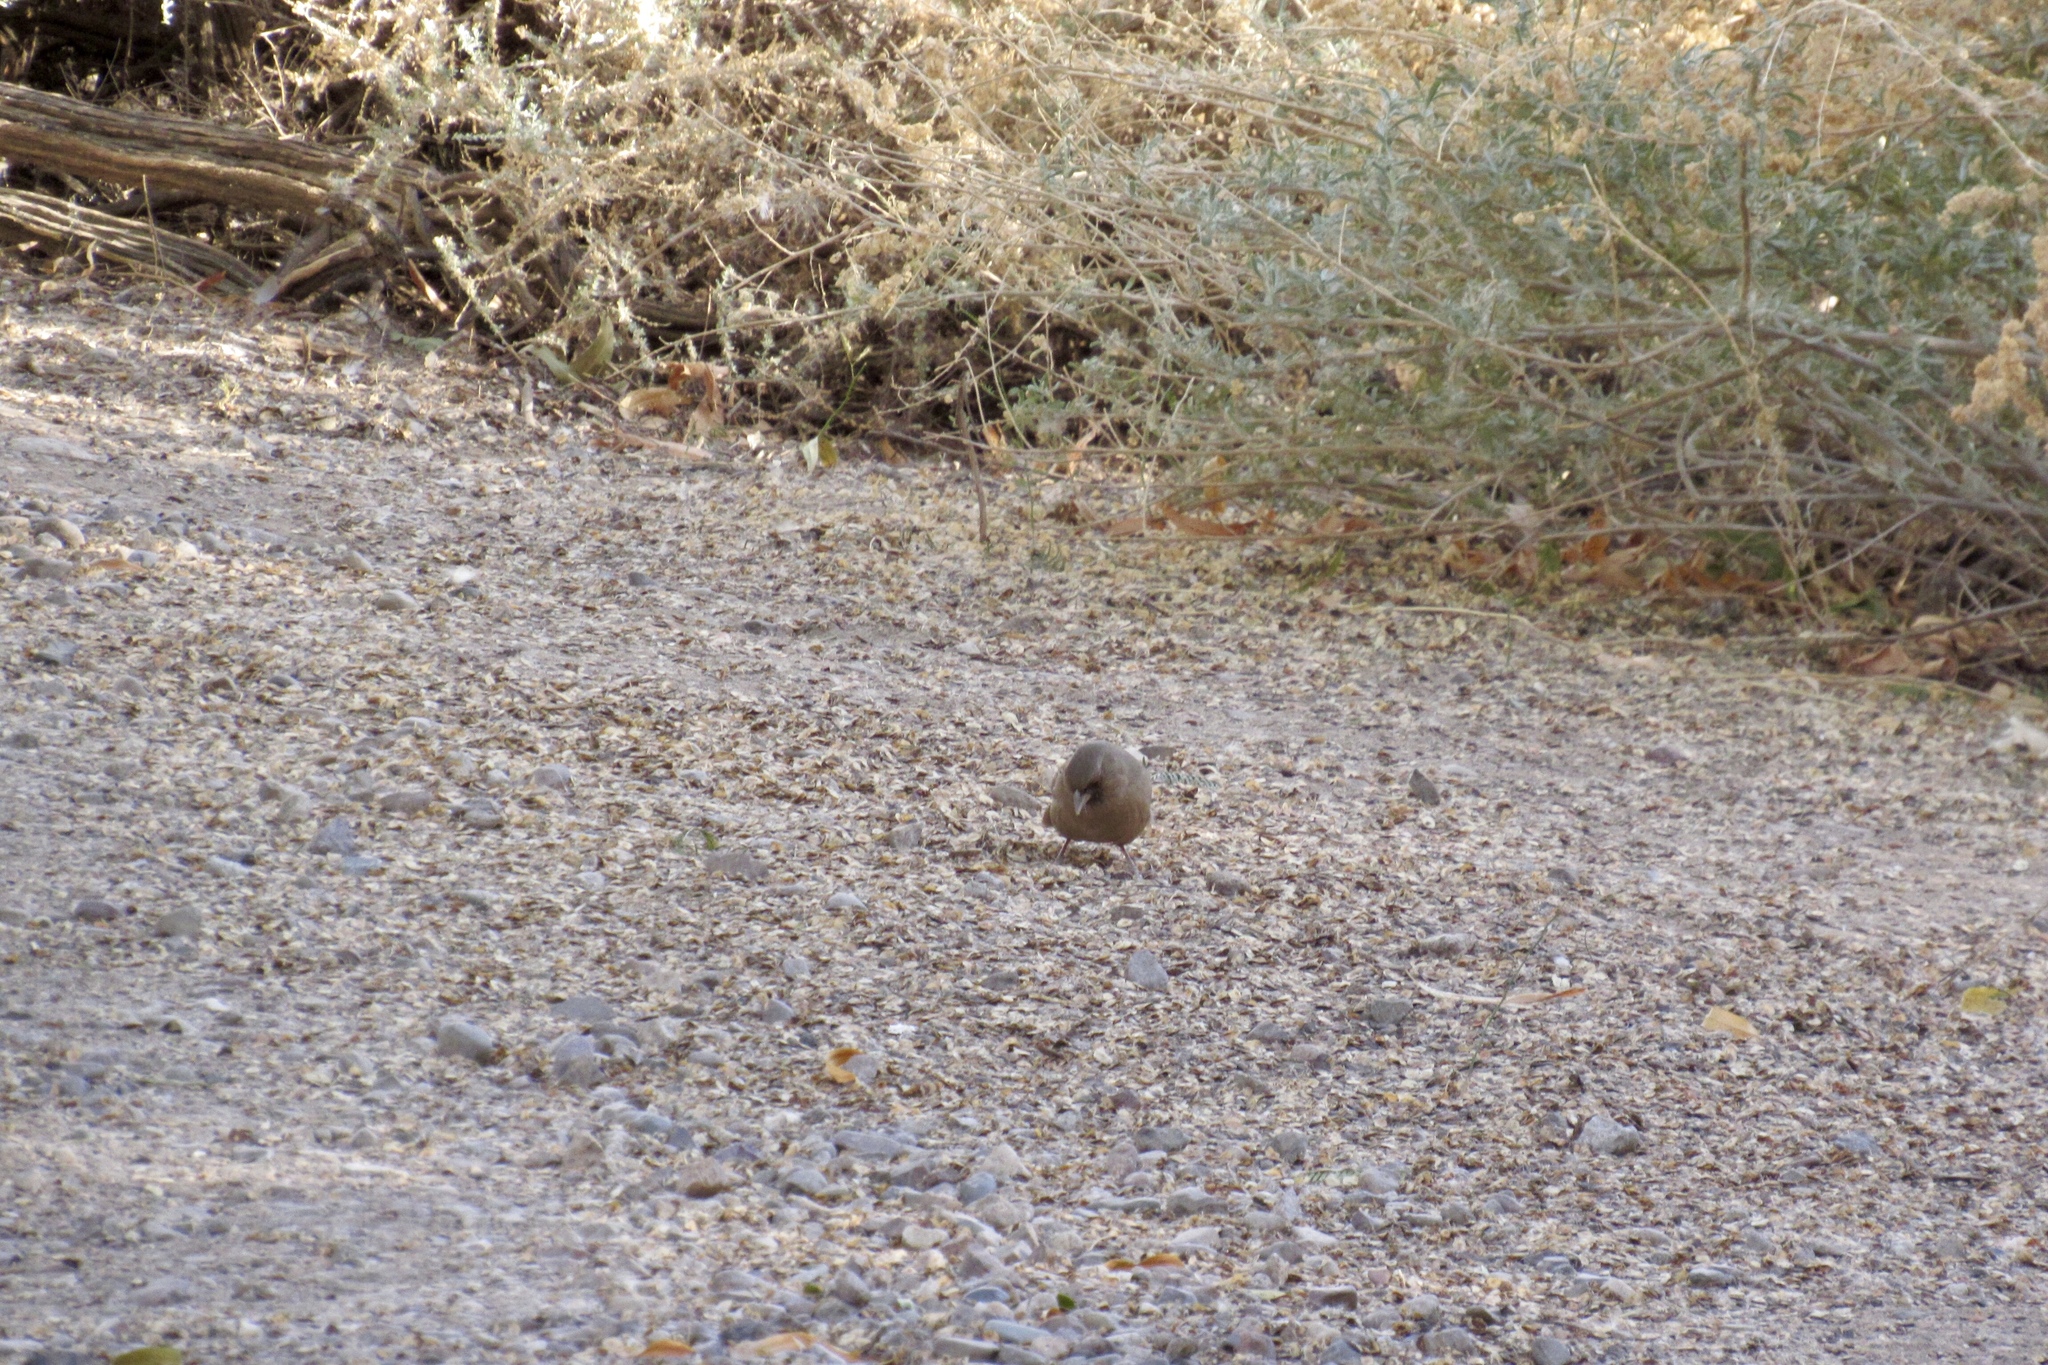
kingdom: Animalia
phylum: Chordata
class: Aves
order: Passeriformes
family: Passerellidae
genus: Melozone
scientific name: Melozone aberti
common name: Abert's towhee
